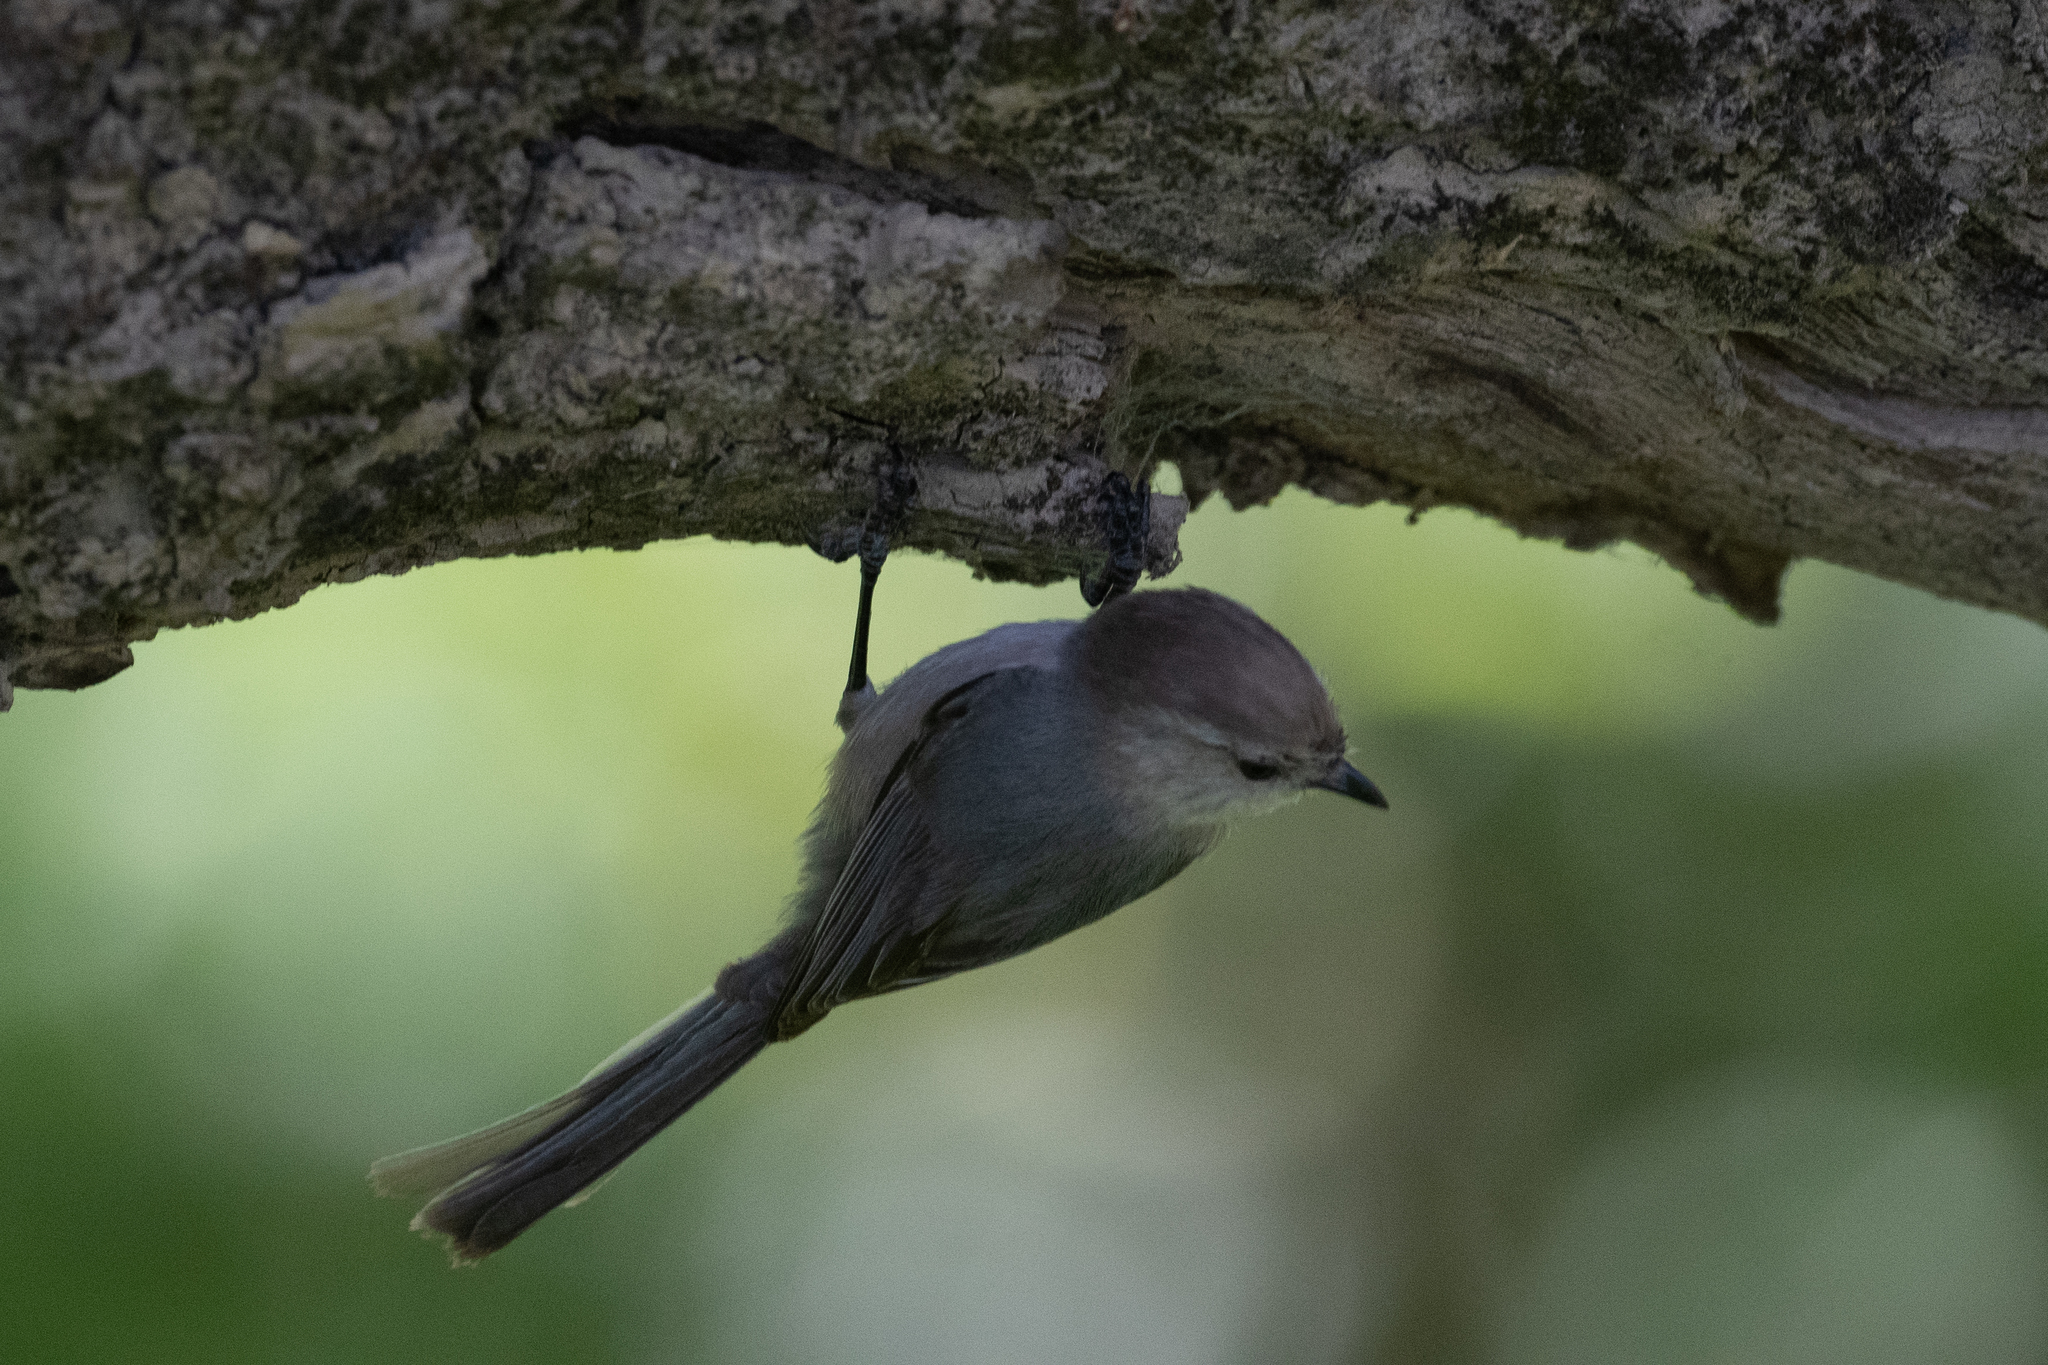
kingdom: Animalia
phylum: Chordata
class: Aves
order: Passeriformes
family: Aegithalidae
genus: Psaltriparus
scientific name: Psaltriparus minimus
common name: American bushtit
